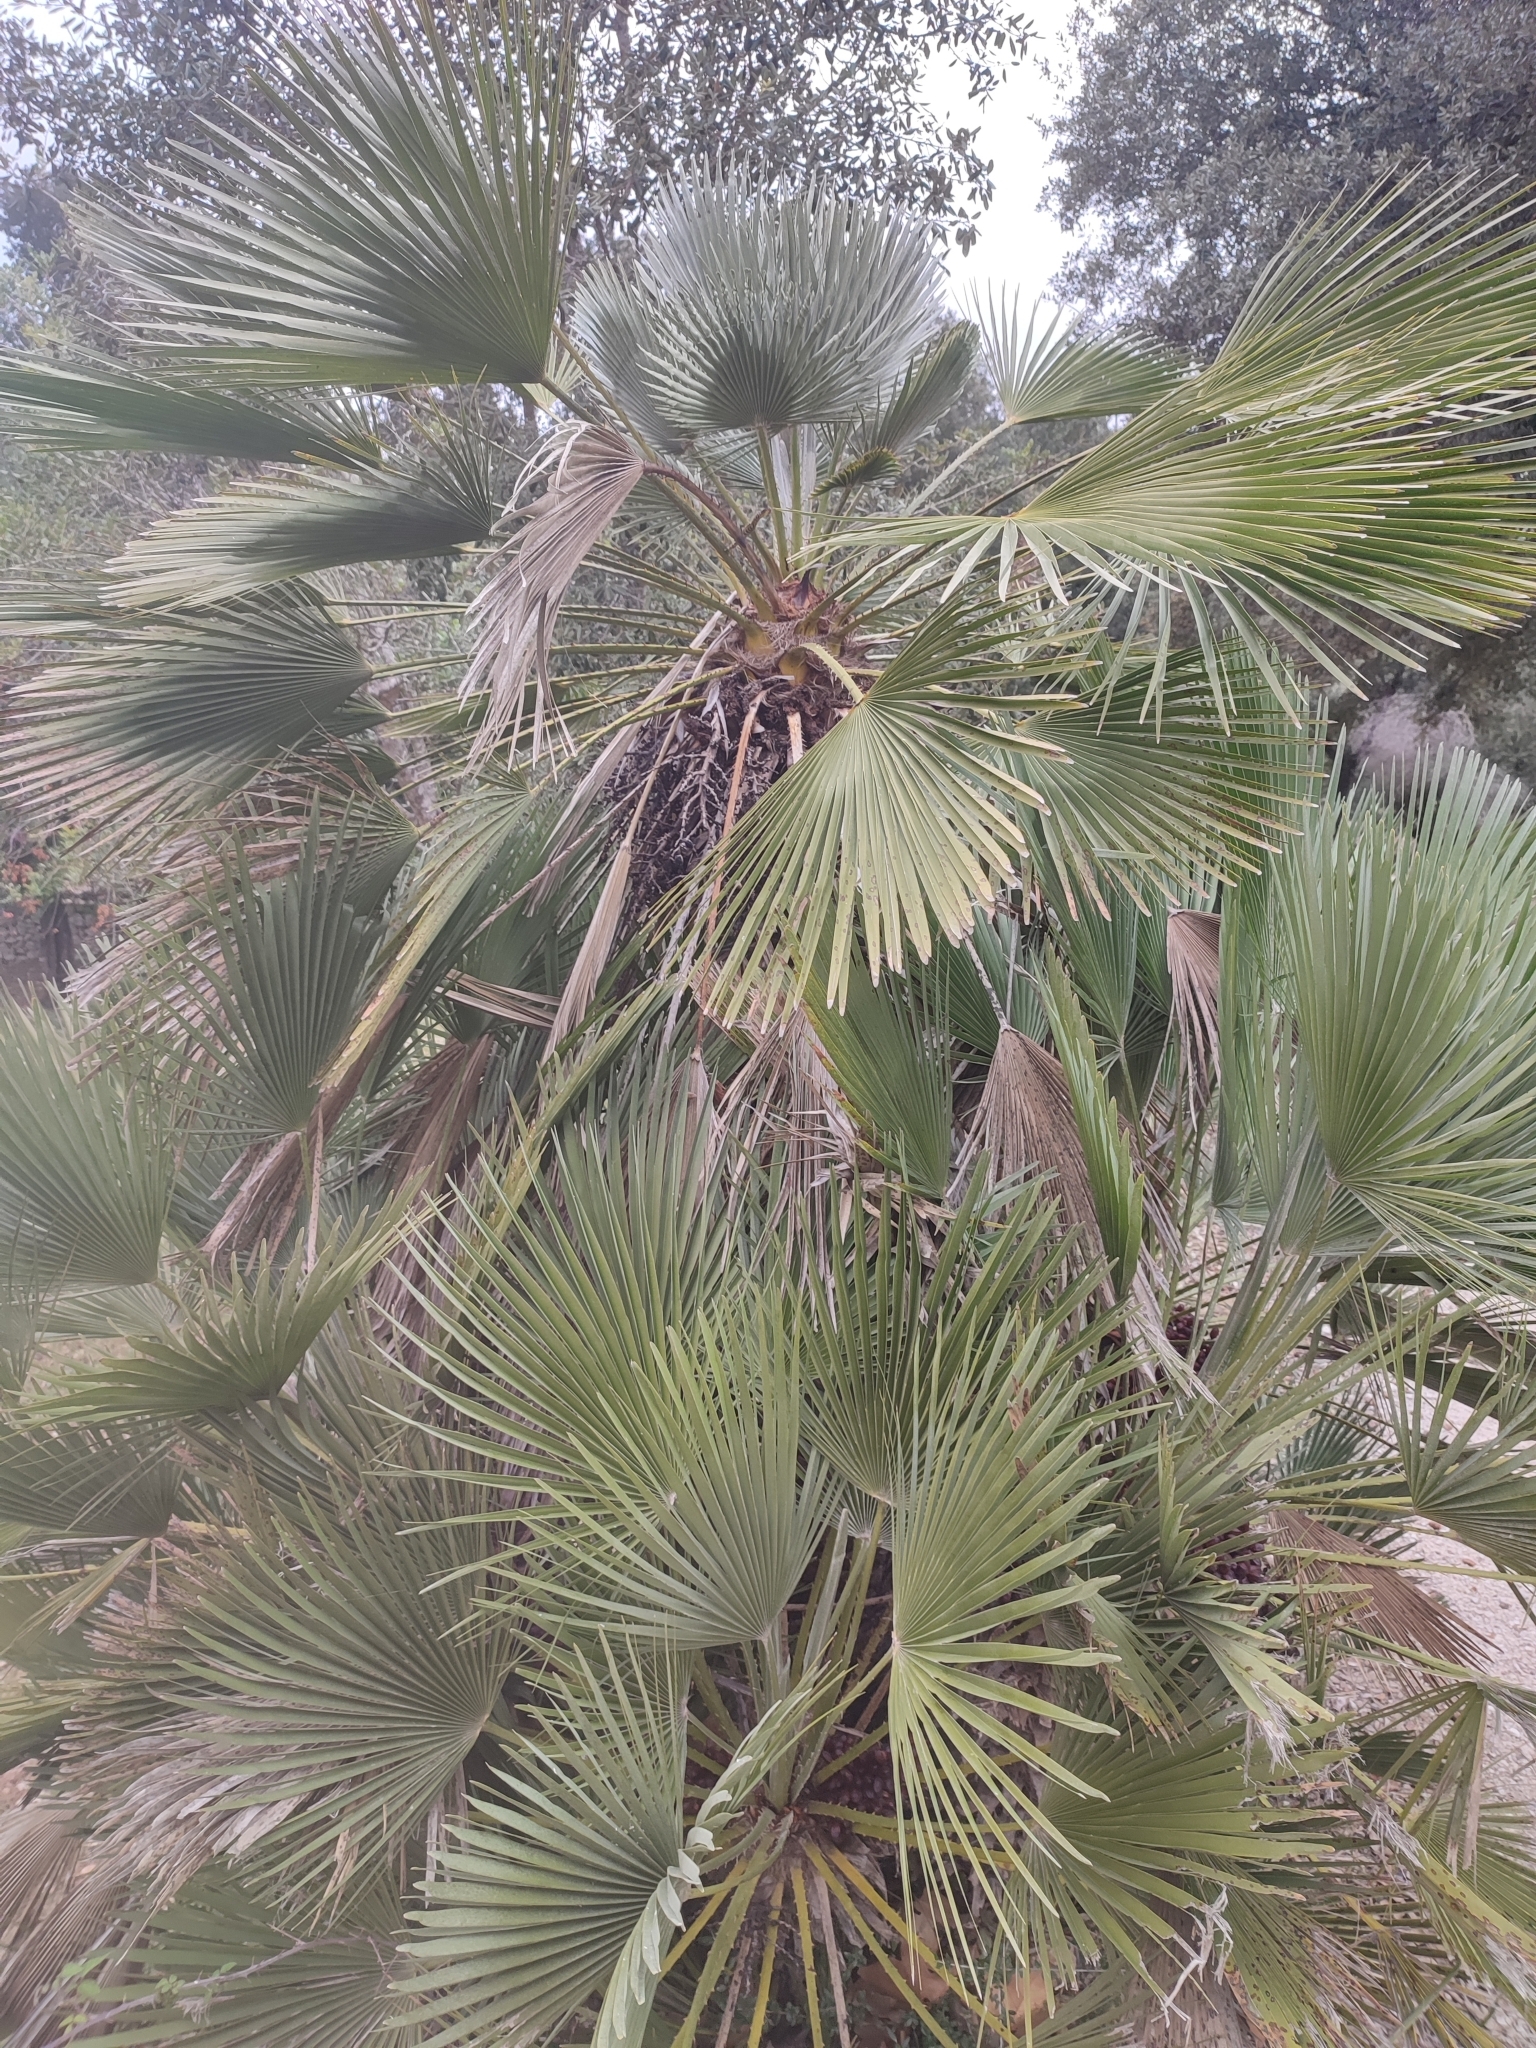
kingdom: Plantae
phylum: Tracheophyta
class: Liliopsida
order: Arecales
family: Arecaceae
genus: Chamaerops
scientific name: Chamaerops humilis
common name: Dwarf fan palm
